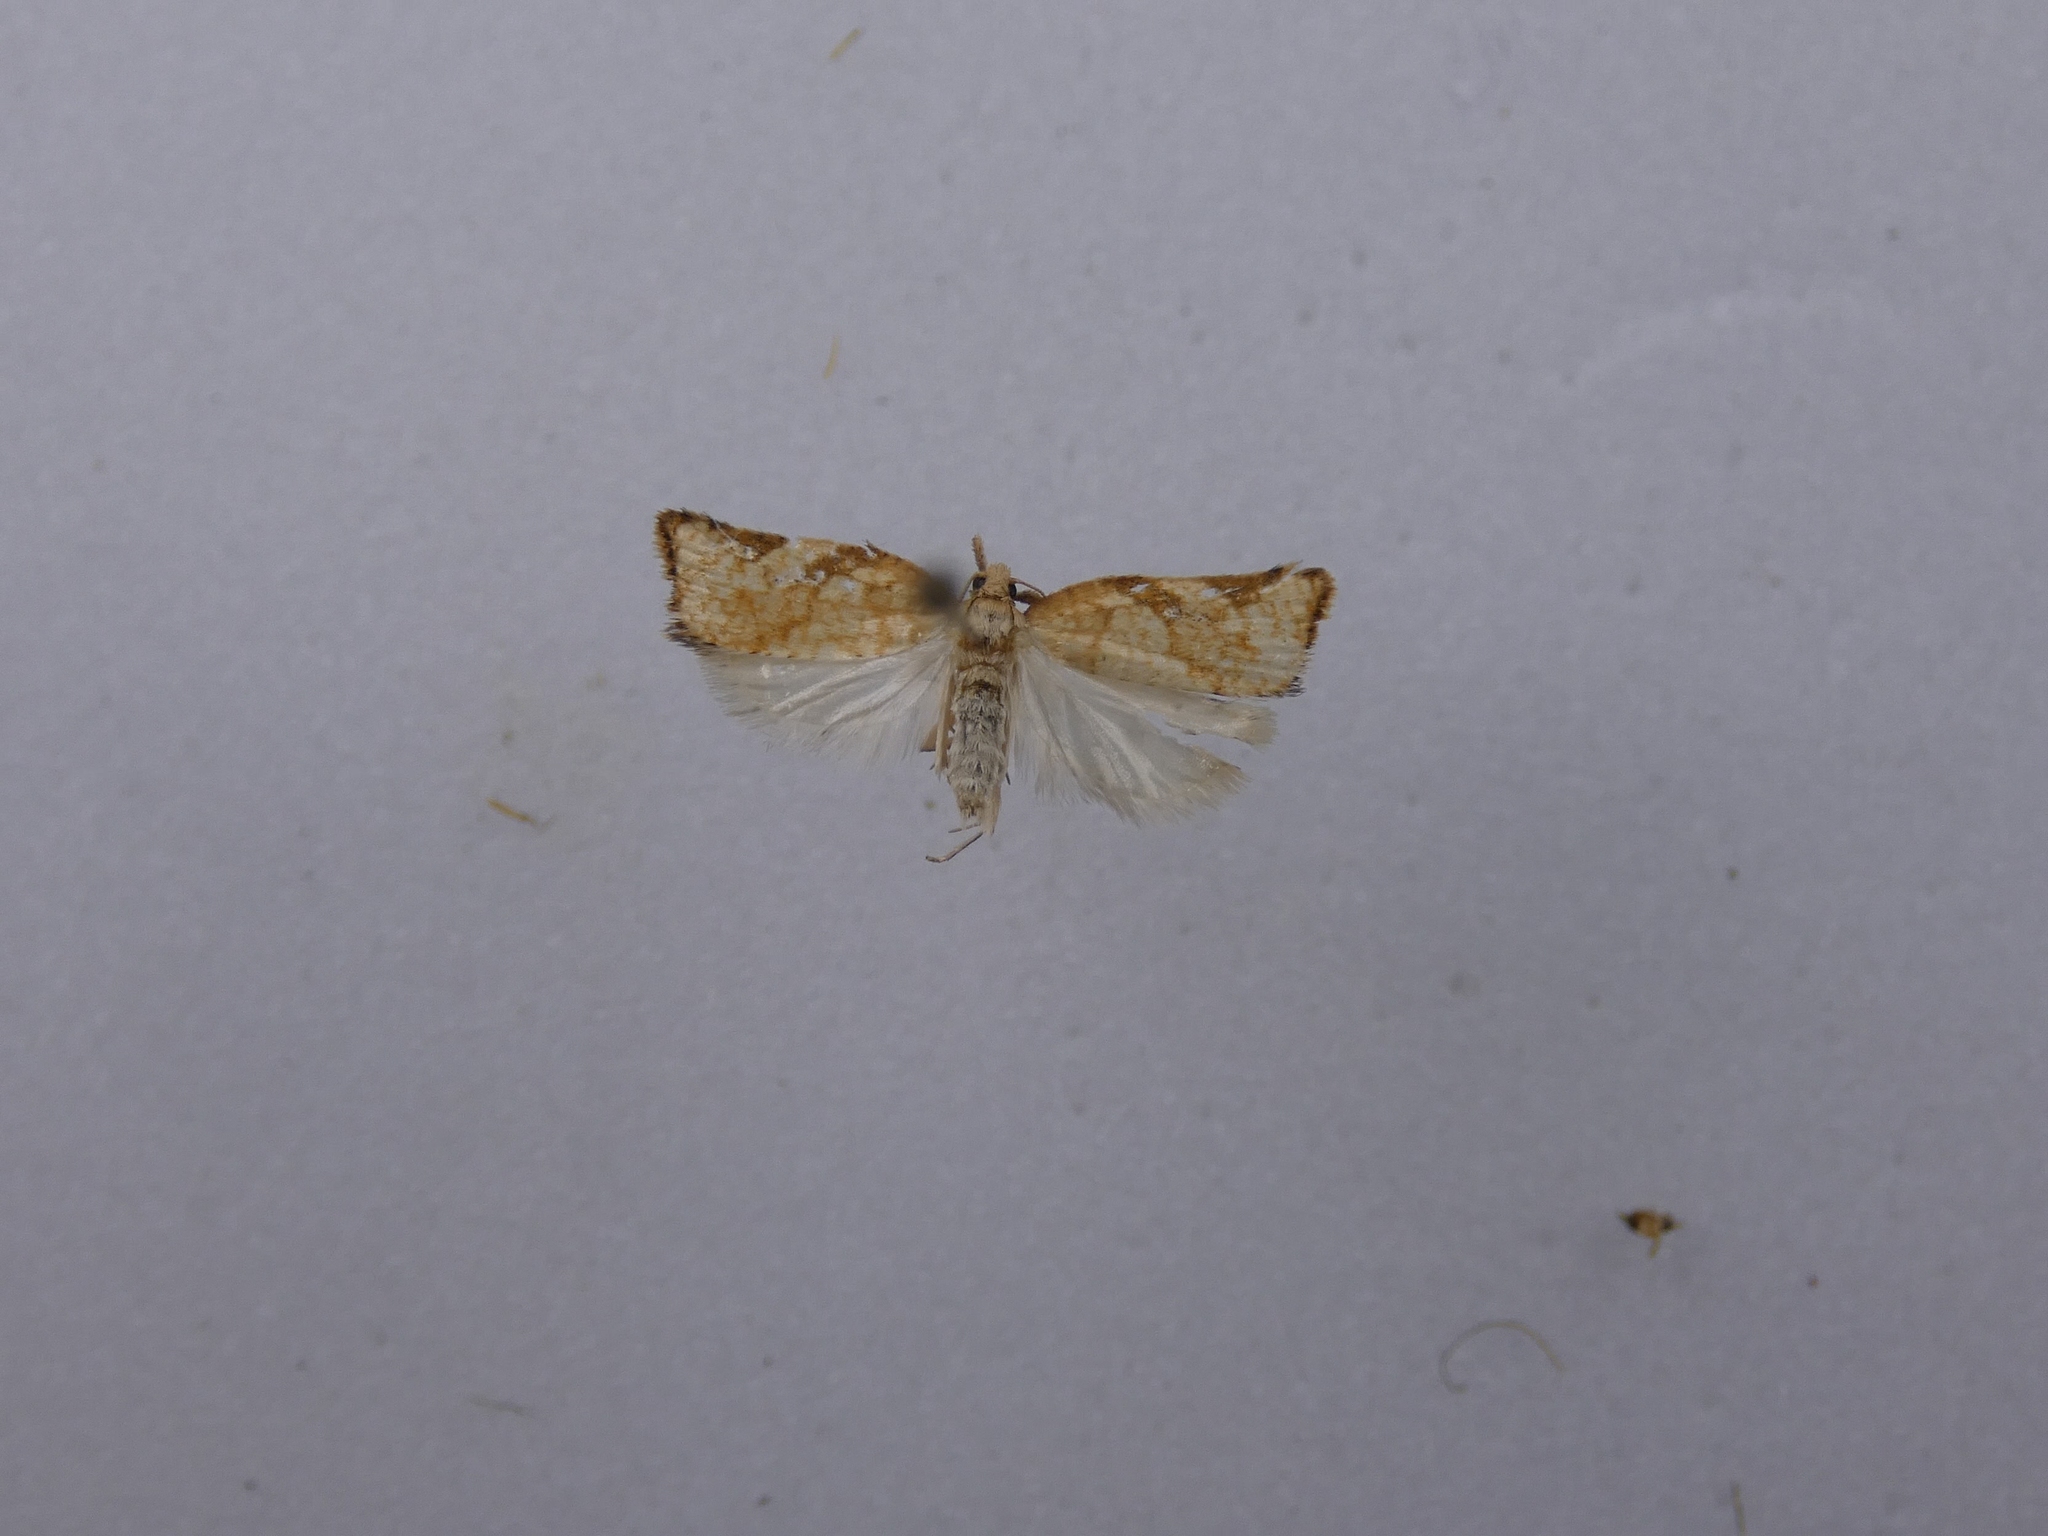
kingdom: Animalia
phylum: Arthropoda
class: Insecta
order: Lepidoptera
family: Tortricidae
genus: Catamacta
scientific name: Catamacta gavisana
